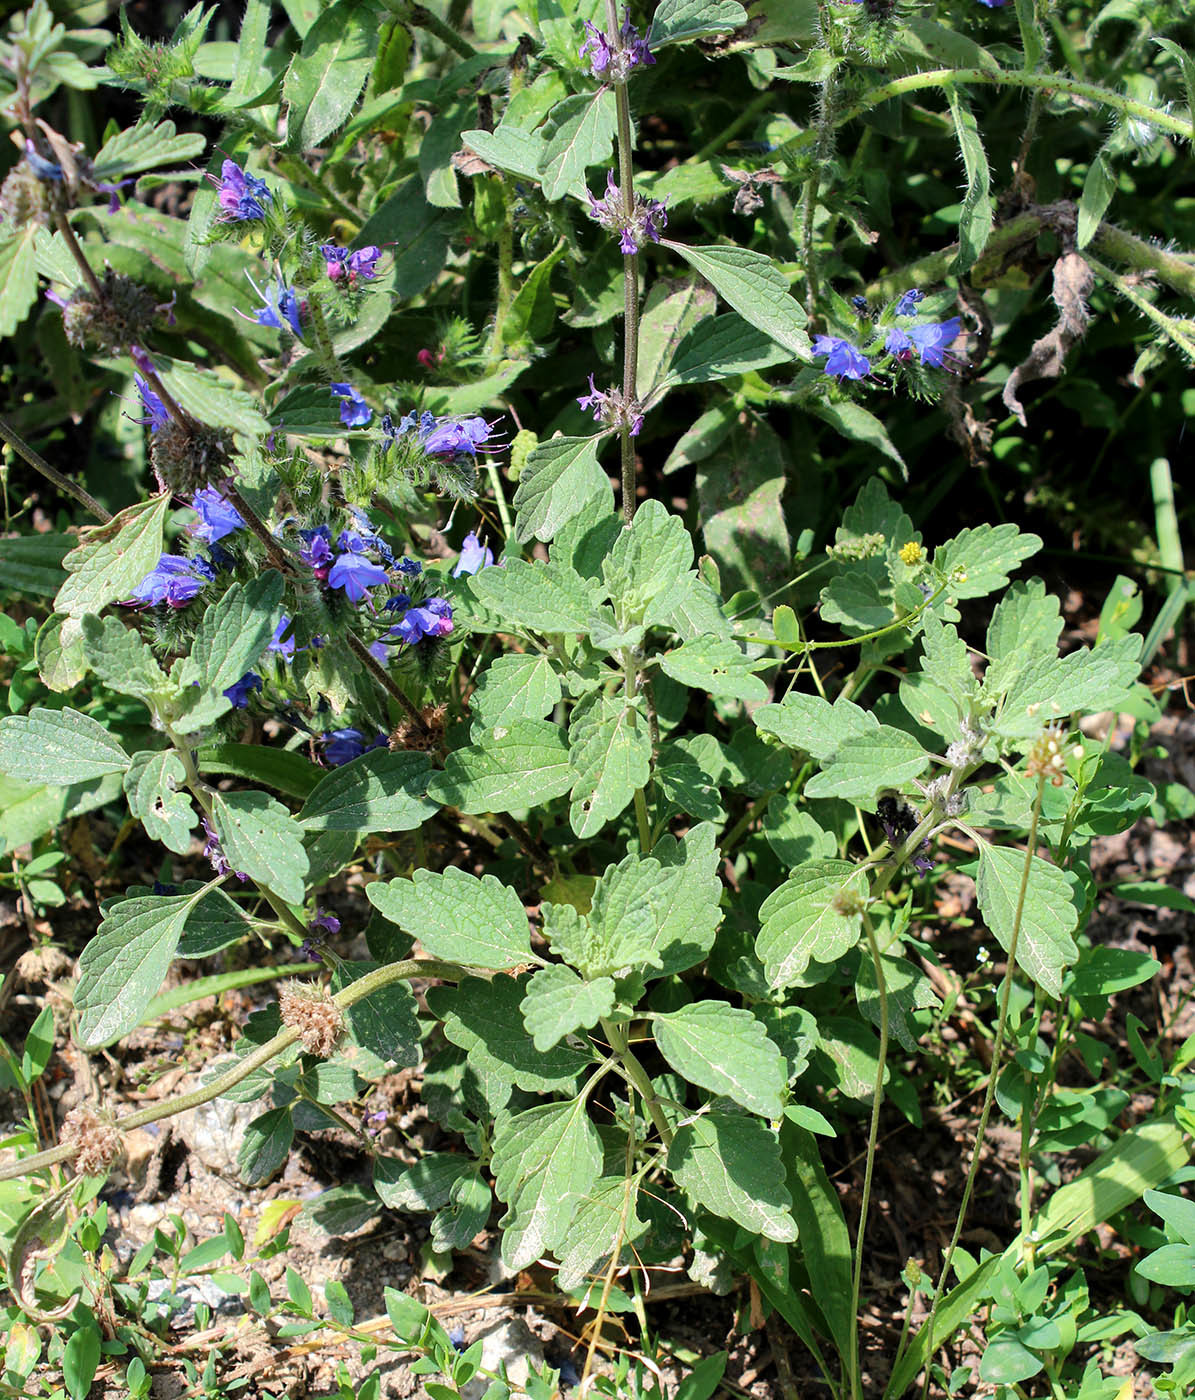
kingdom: Plantae
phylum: Tracheophyta
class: Magnoliopsida
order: Lamiales
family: Lamiaceae
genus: Marrubium
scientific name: Marrubium leonuroides
